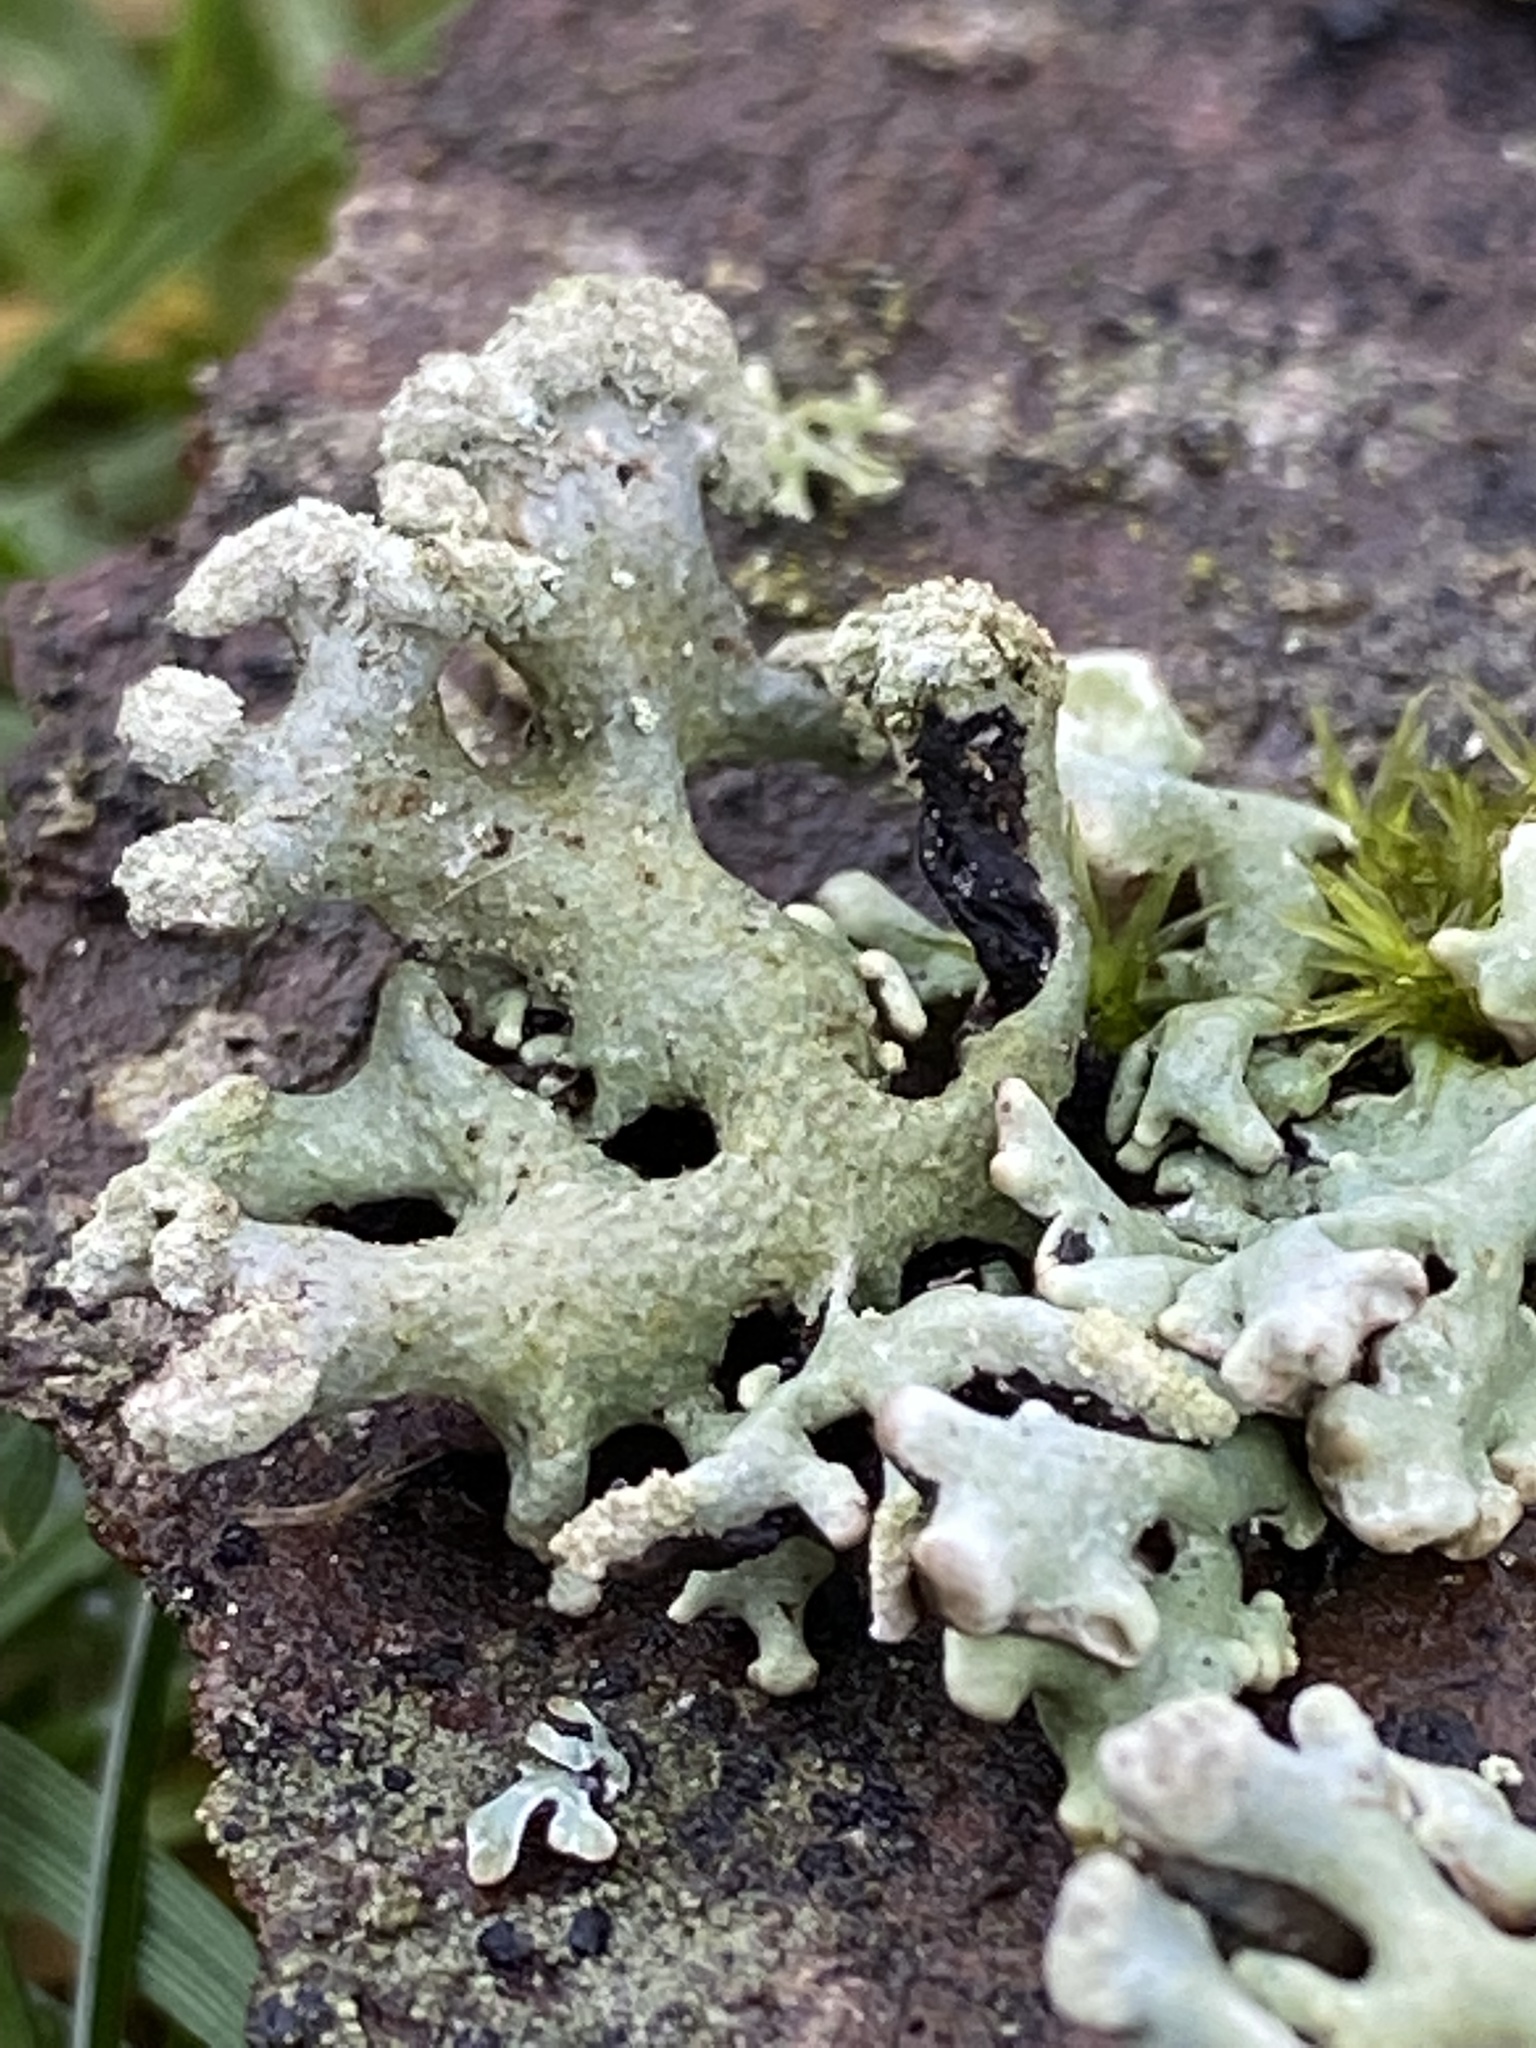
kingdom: Fungi
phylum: Ascomycota
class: Lecanoromycetes
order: Lecanorales
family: Parmeliaceae
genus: Hypogymnia
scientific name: Hypogymnia tubulosa
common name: Powder-headed tube lichen
